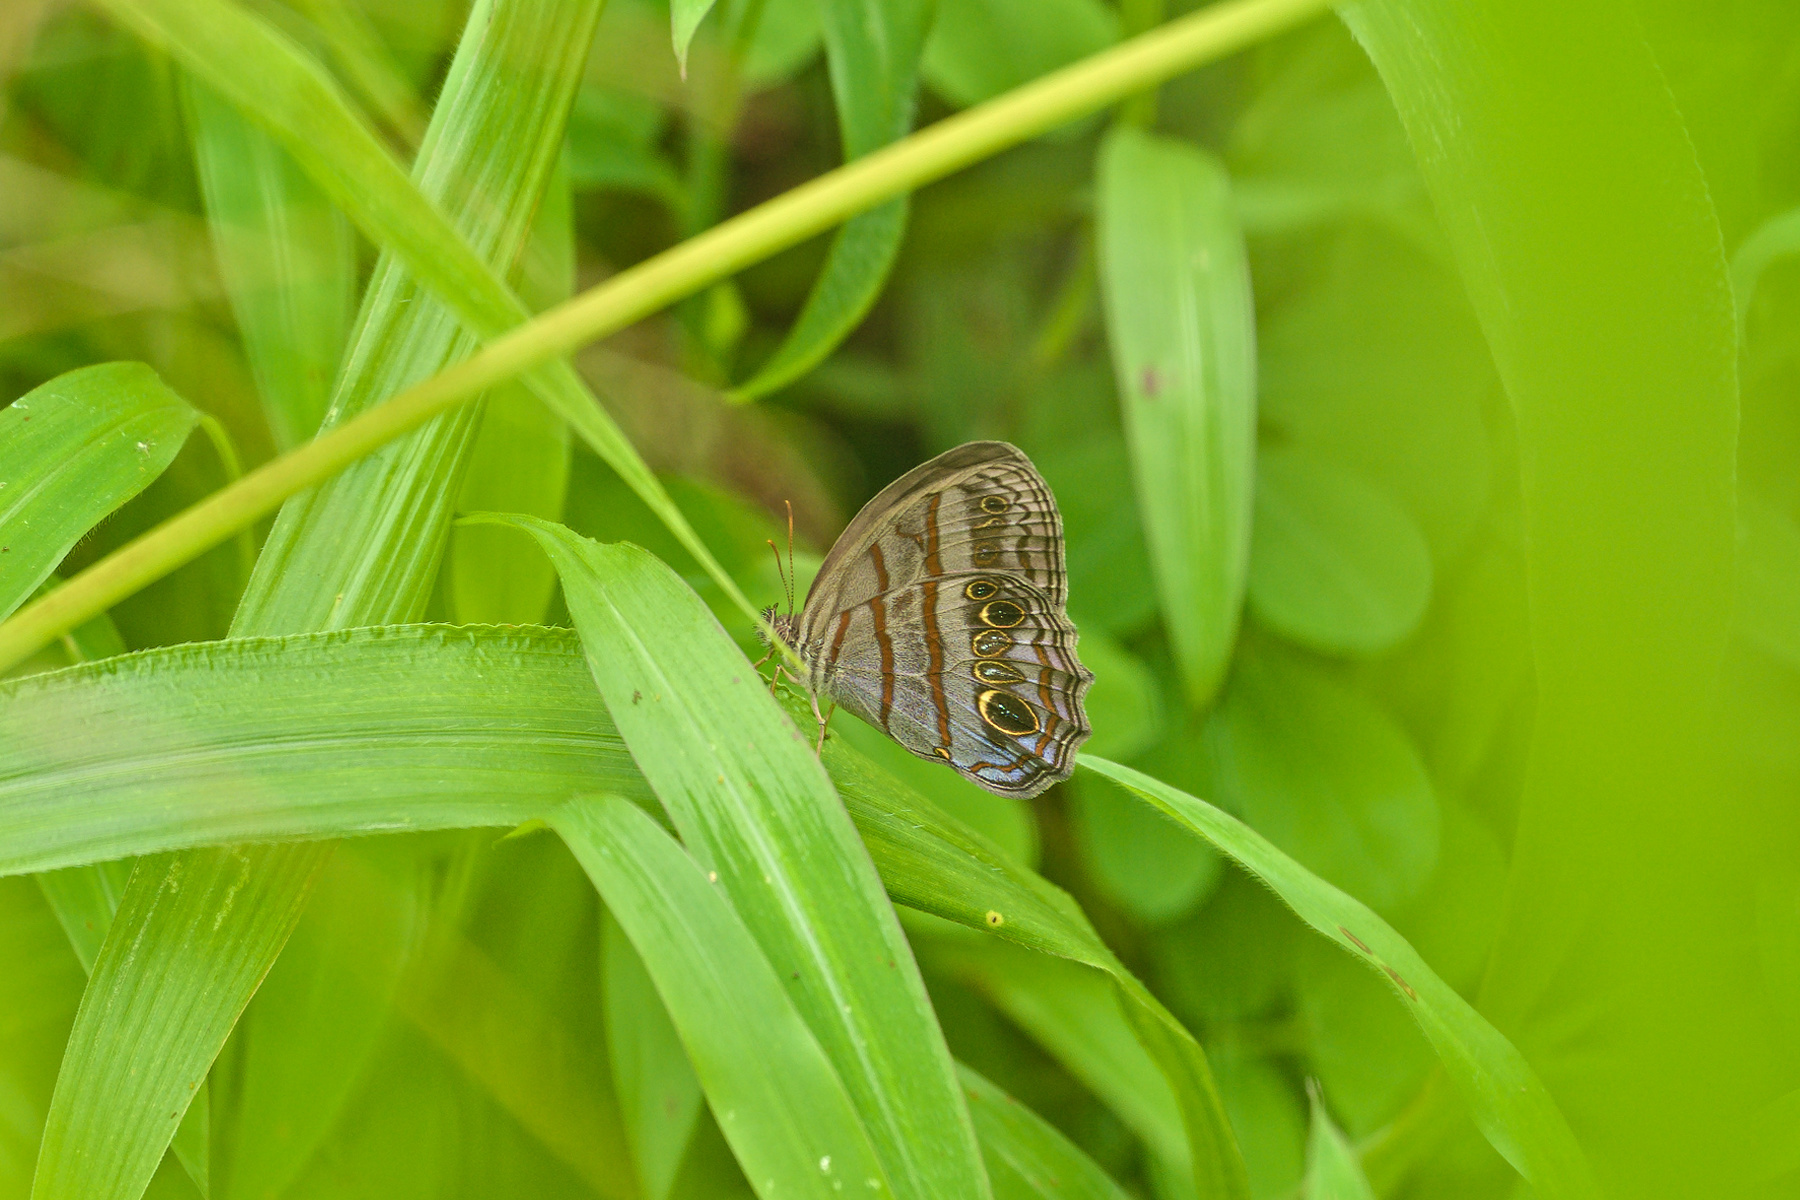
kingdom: Animalia
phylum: Arthropoda
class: Insecta
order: Lepidoptera
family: Nymphalidae
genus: Magneuptychia
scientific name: Magneuptychia libye
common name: Blue-gray satyr
